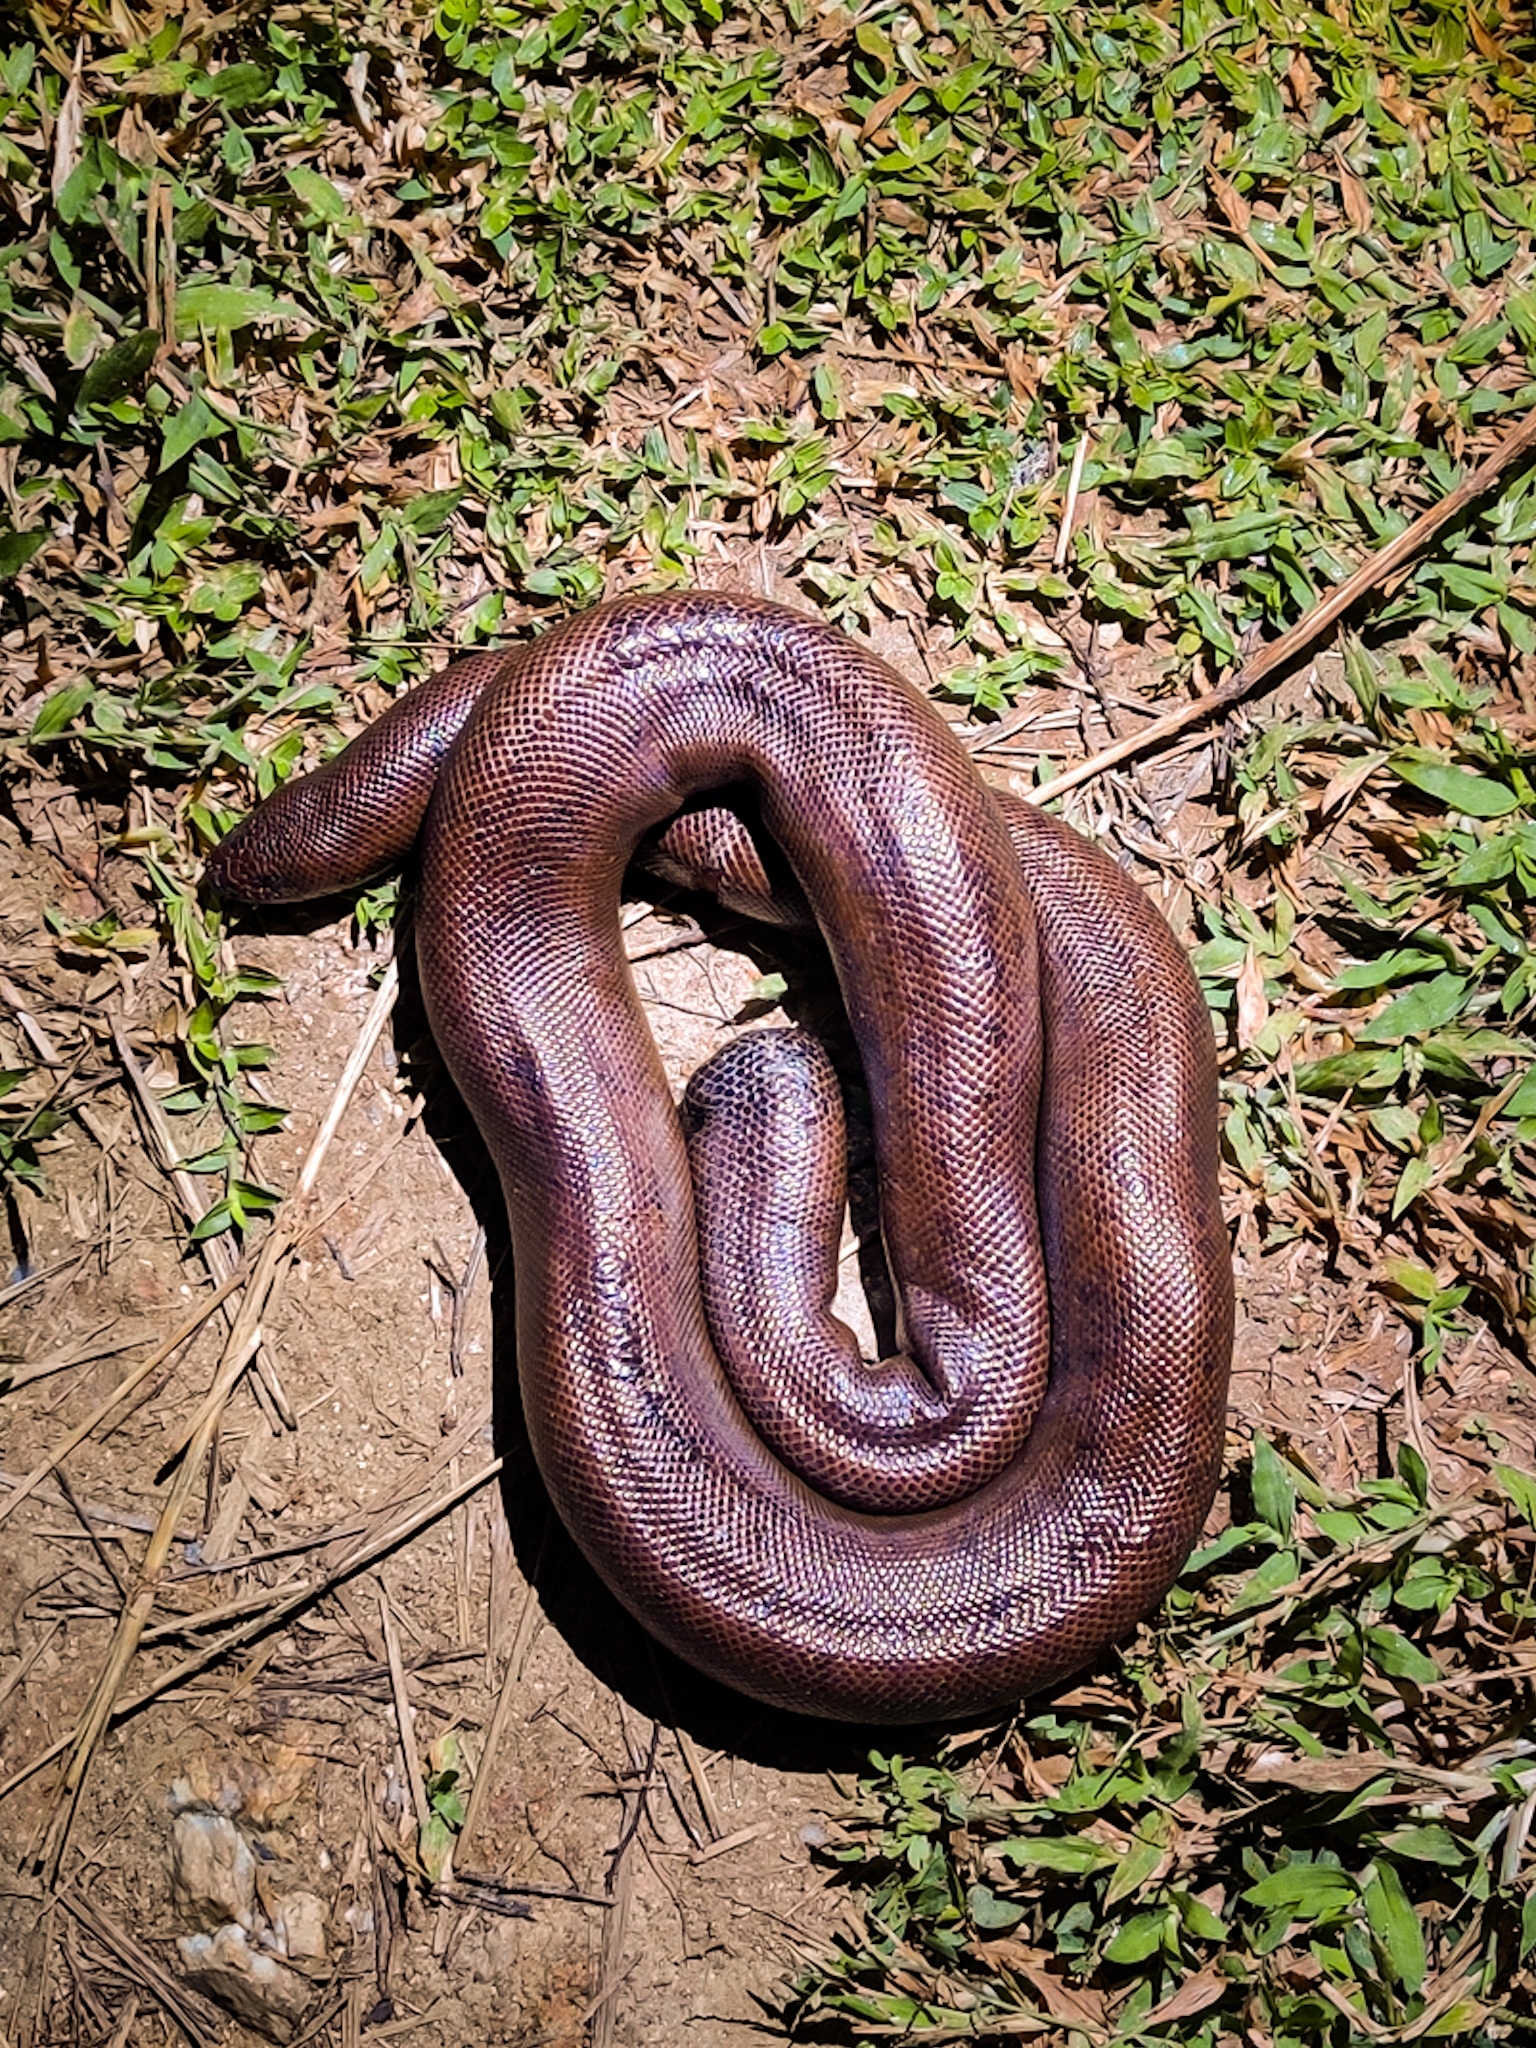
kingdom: Animalia
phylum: Chordata
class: Squamata
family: Boidae
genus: Eryx
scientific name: Eryx johnii
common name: Brown sand boa
